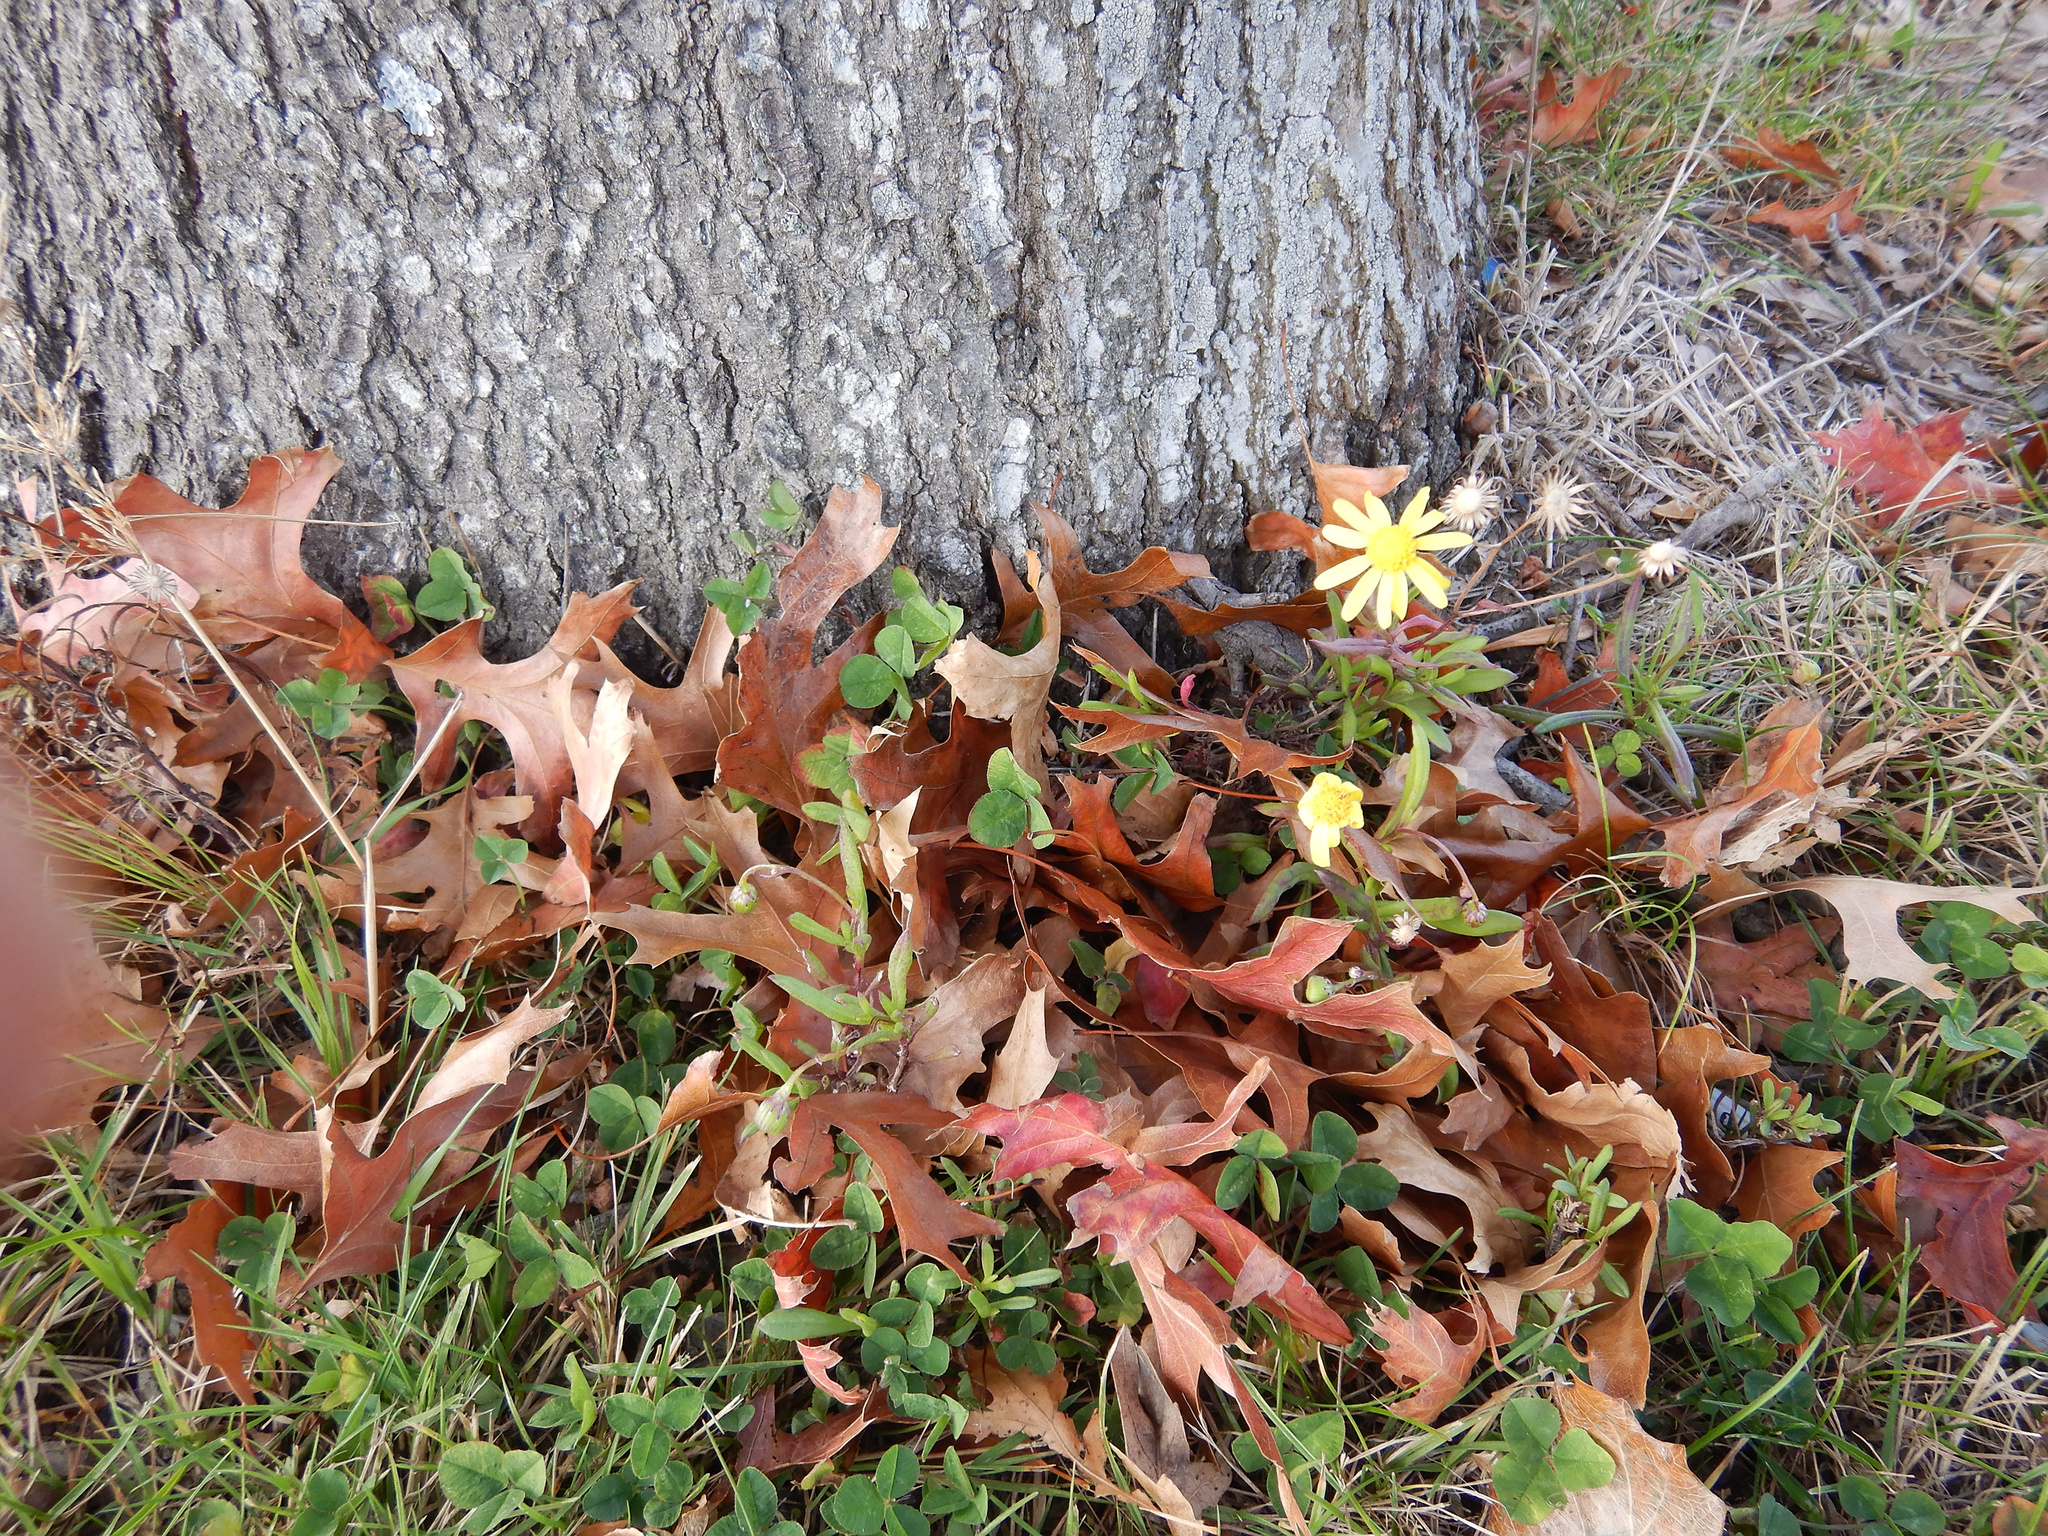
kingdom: Plantae
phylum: Tracheophyta
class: Magnoliopsida
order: Asterales
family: Asteraceae
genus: Senecio
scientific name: Senecio skirrhodon
